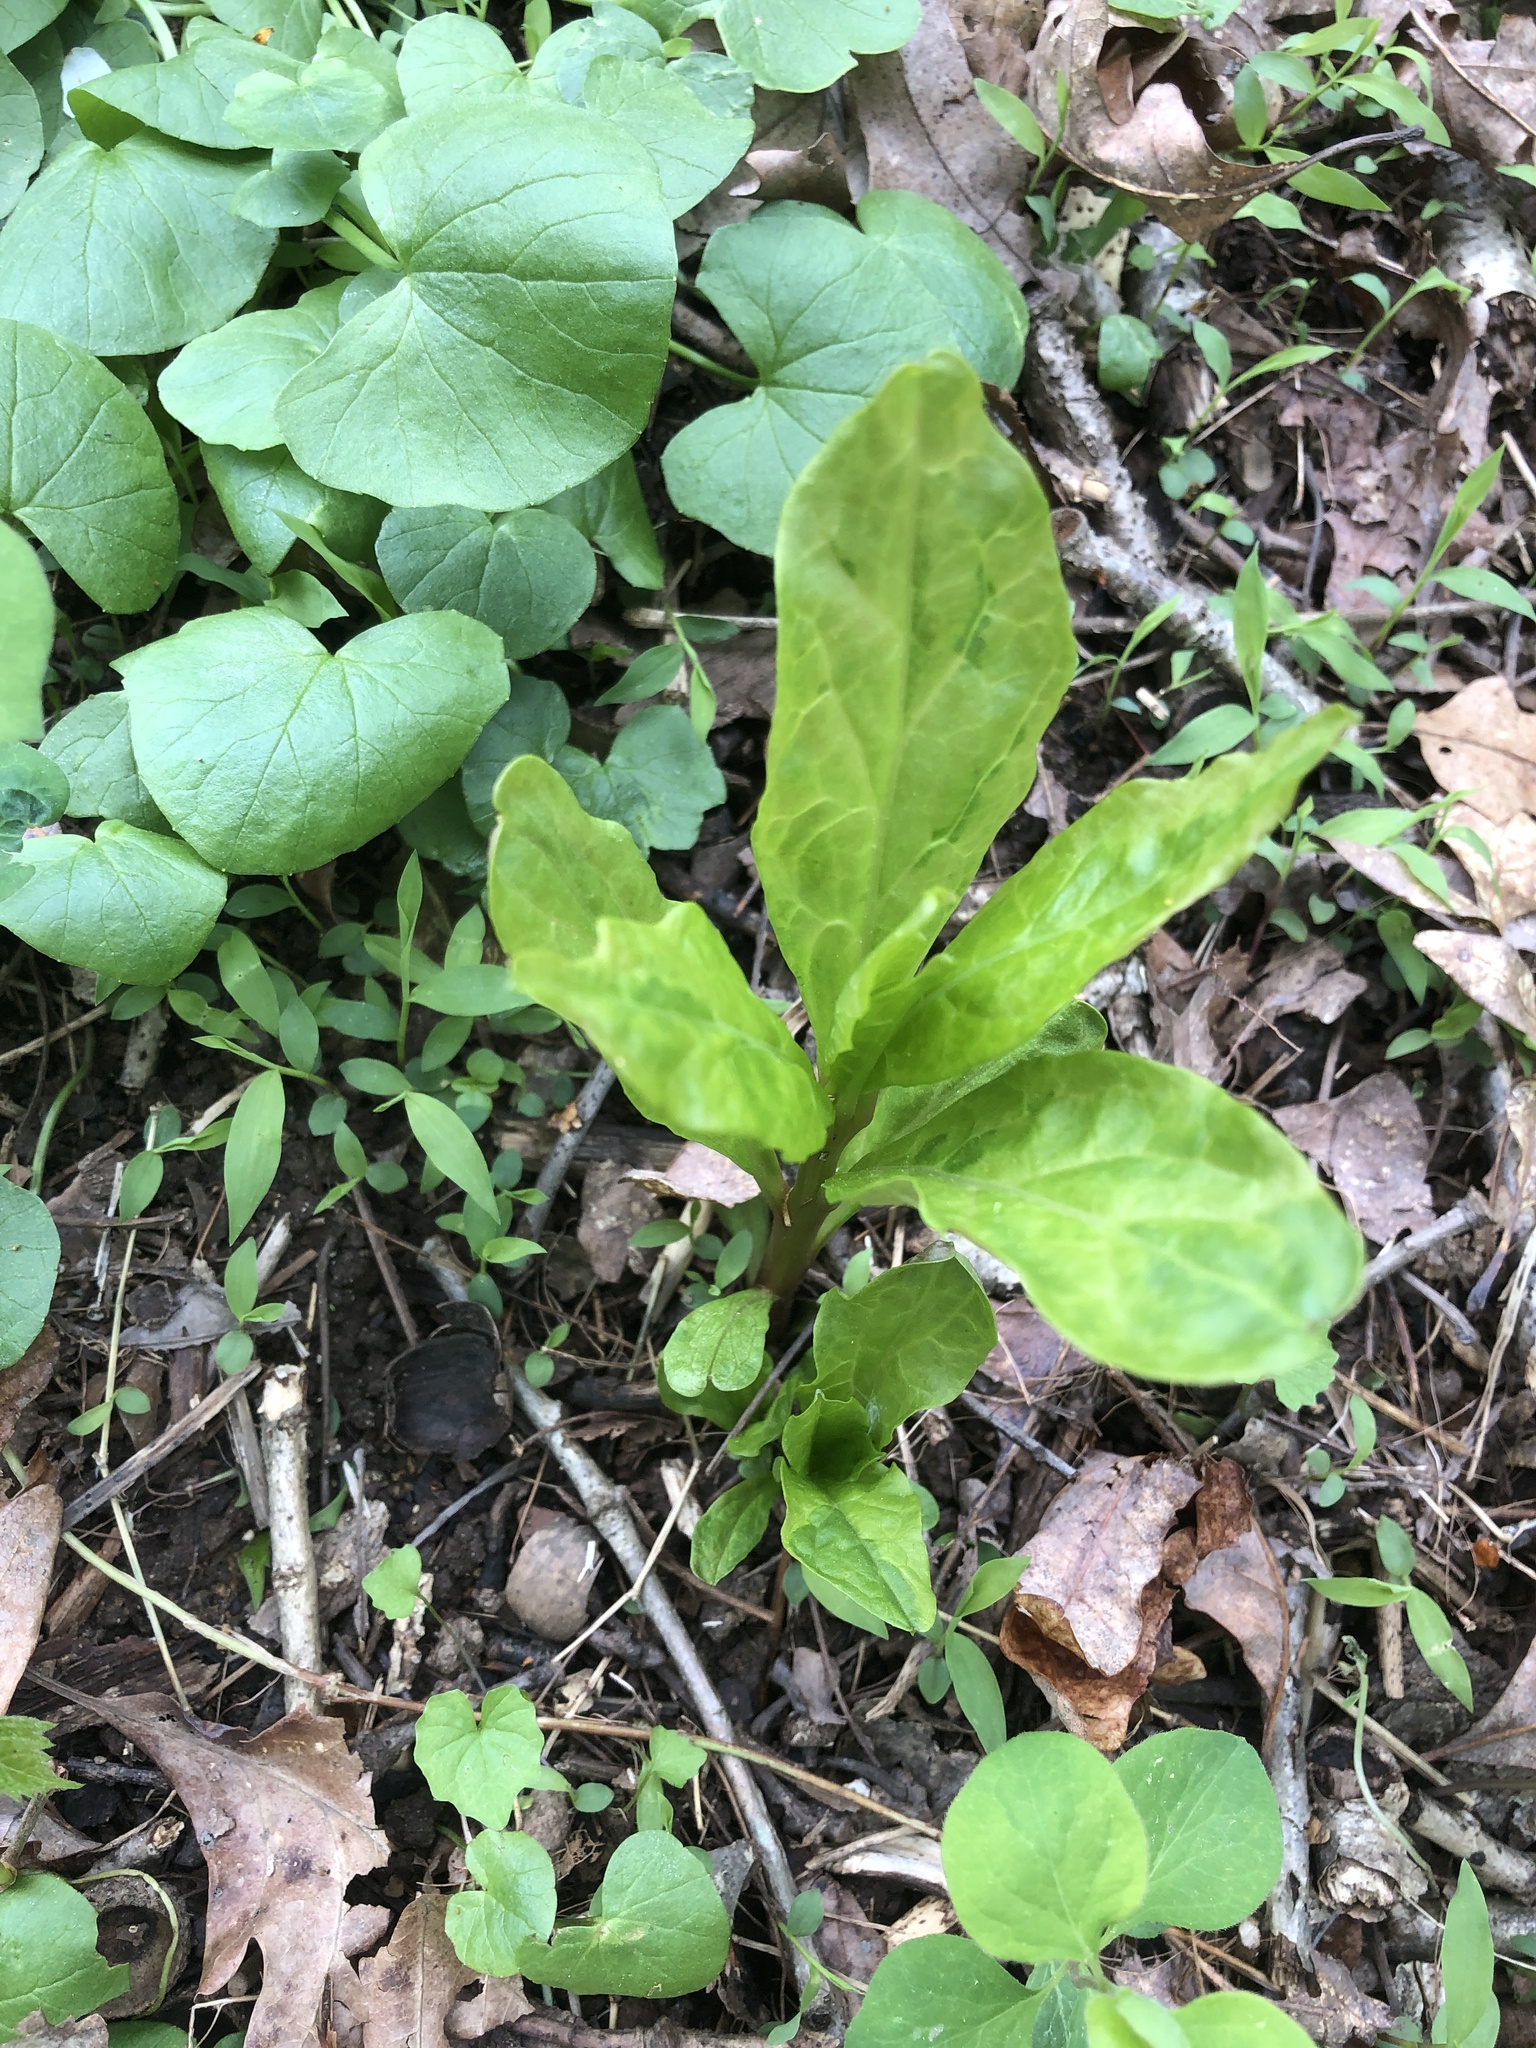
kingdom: Plantae
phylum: Tracheophyta
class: Magnoliopsida
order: Caryophyllales
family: Phytolaccaceae
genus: Phytolacca
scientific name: Phytolacca americana
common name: American pokeweed
